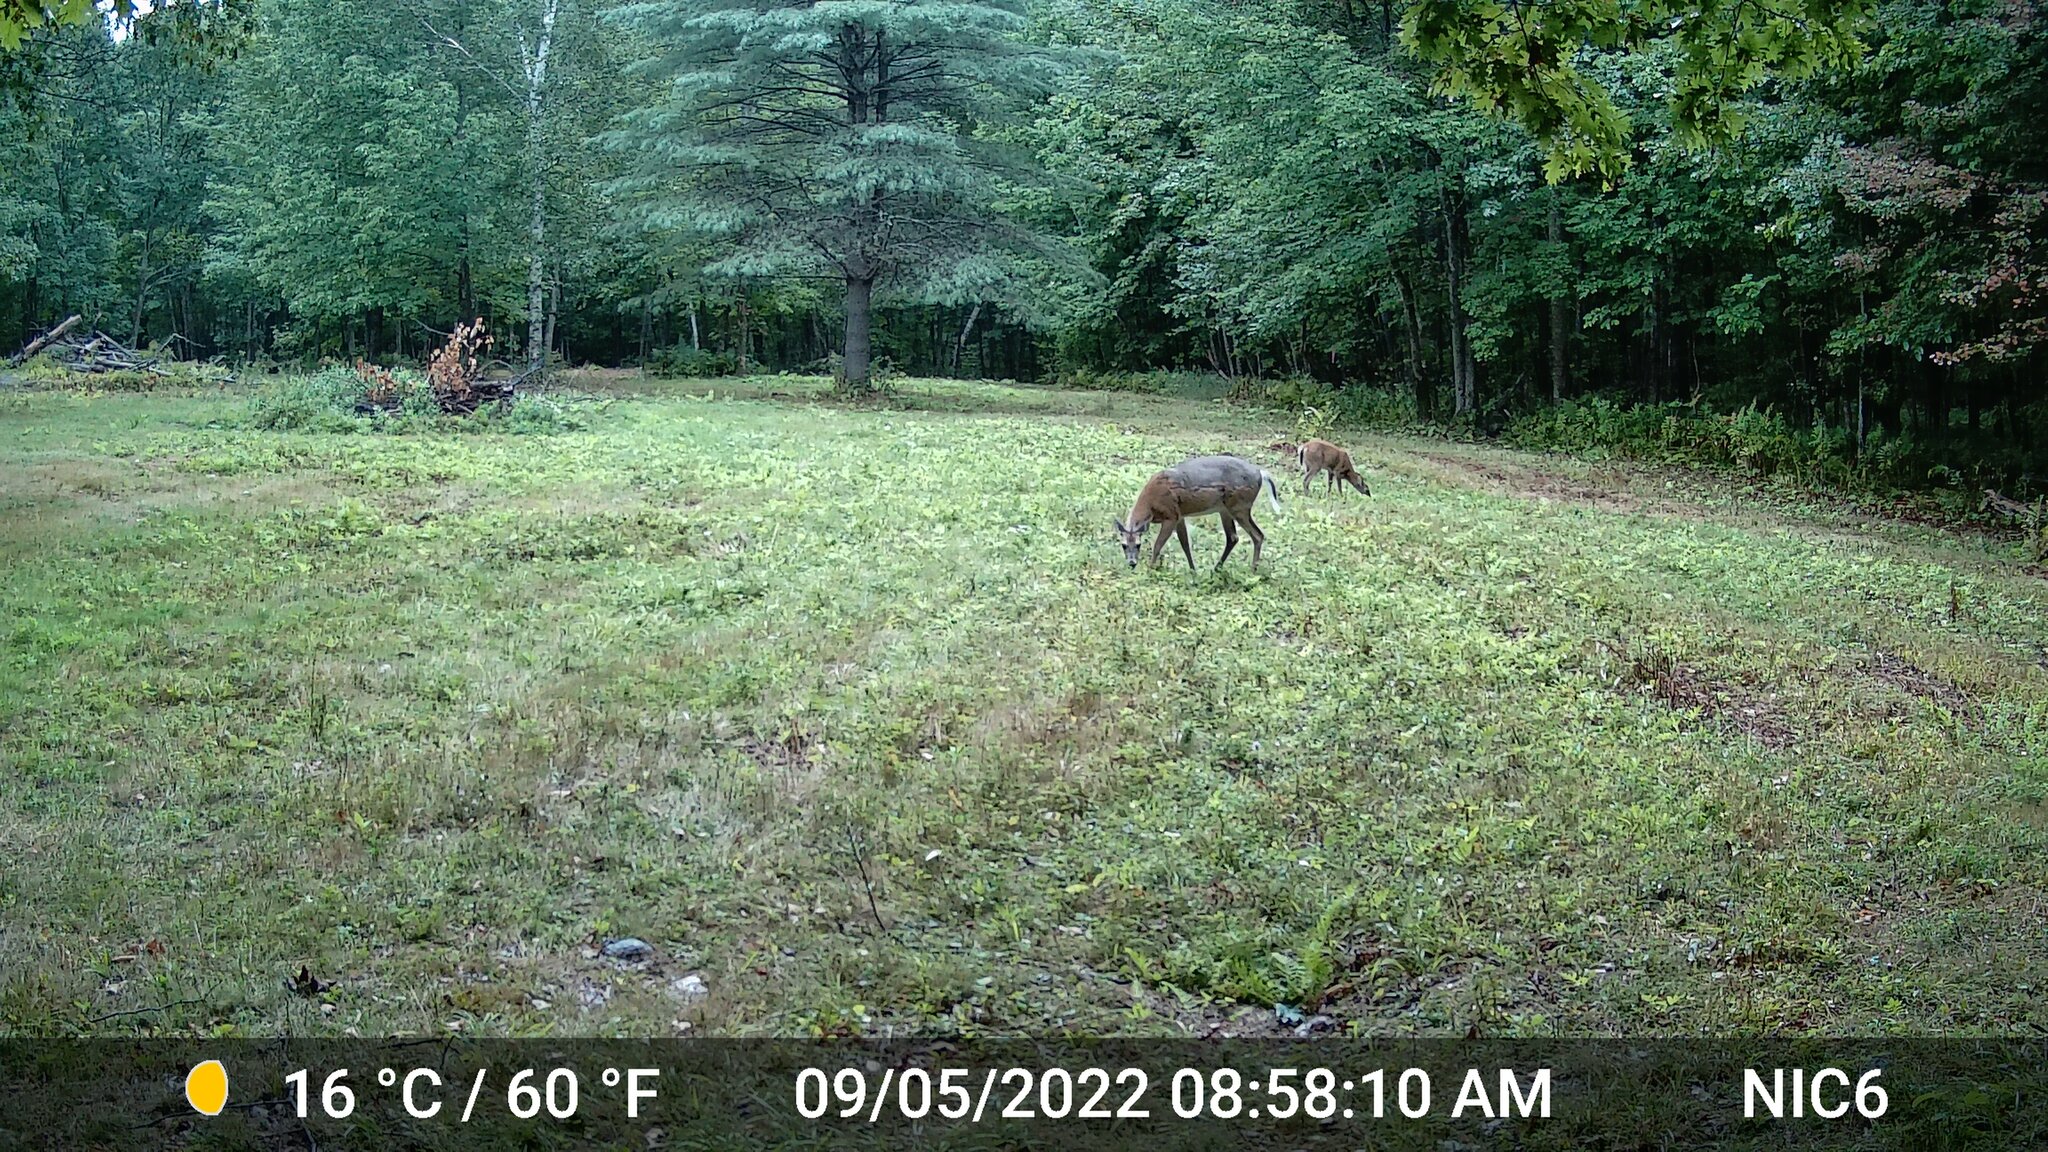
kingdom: Animalia
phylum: Chordata
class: Mammalia
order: Artiodactyla
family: Cervidae
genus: Odocoileus
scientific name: Odocoileus virginianus
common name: White-tailed deer
